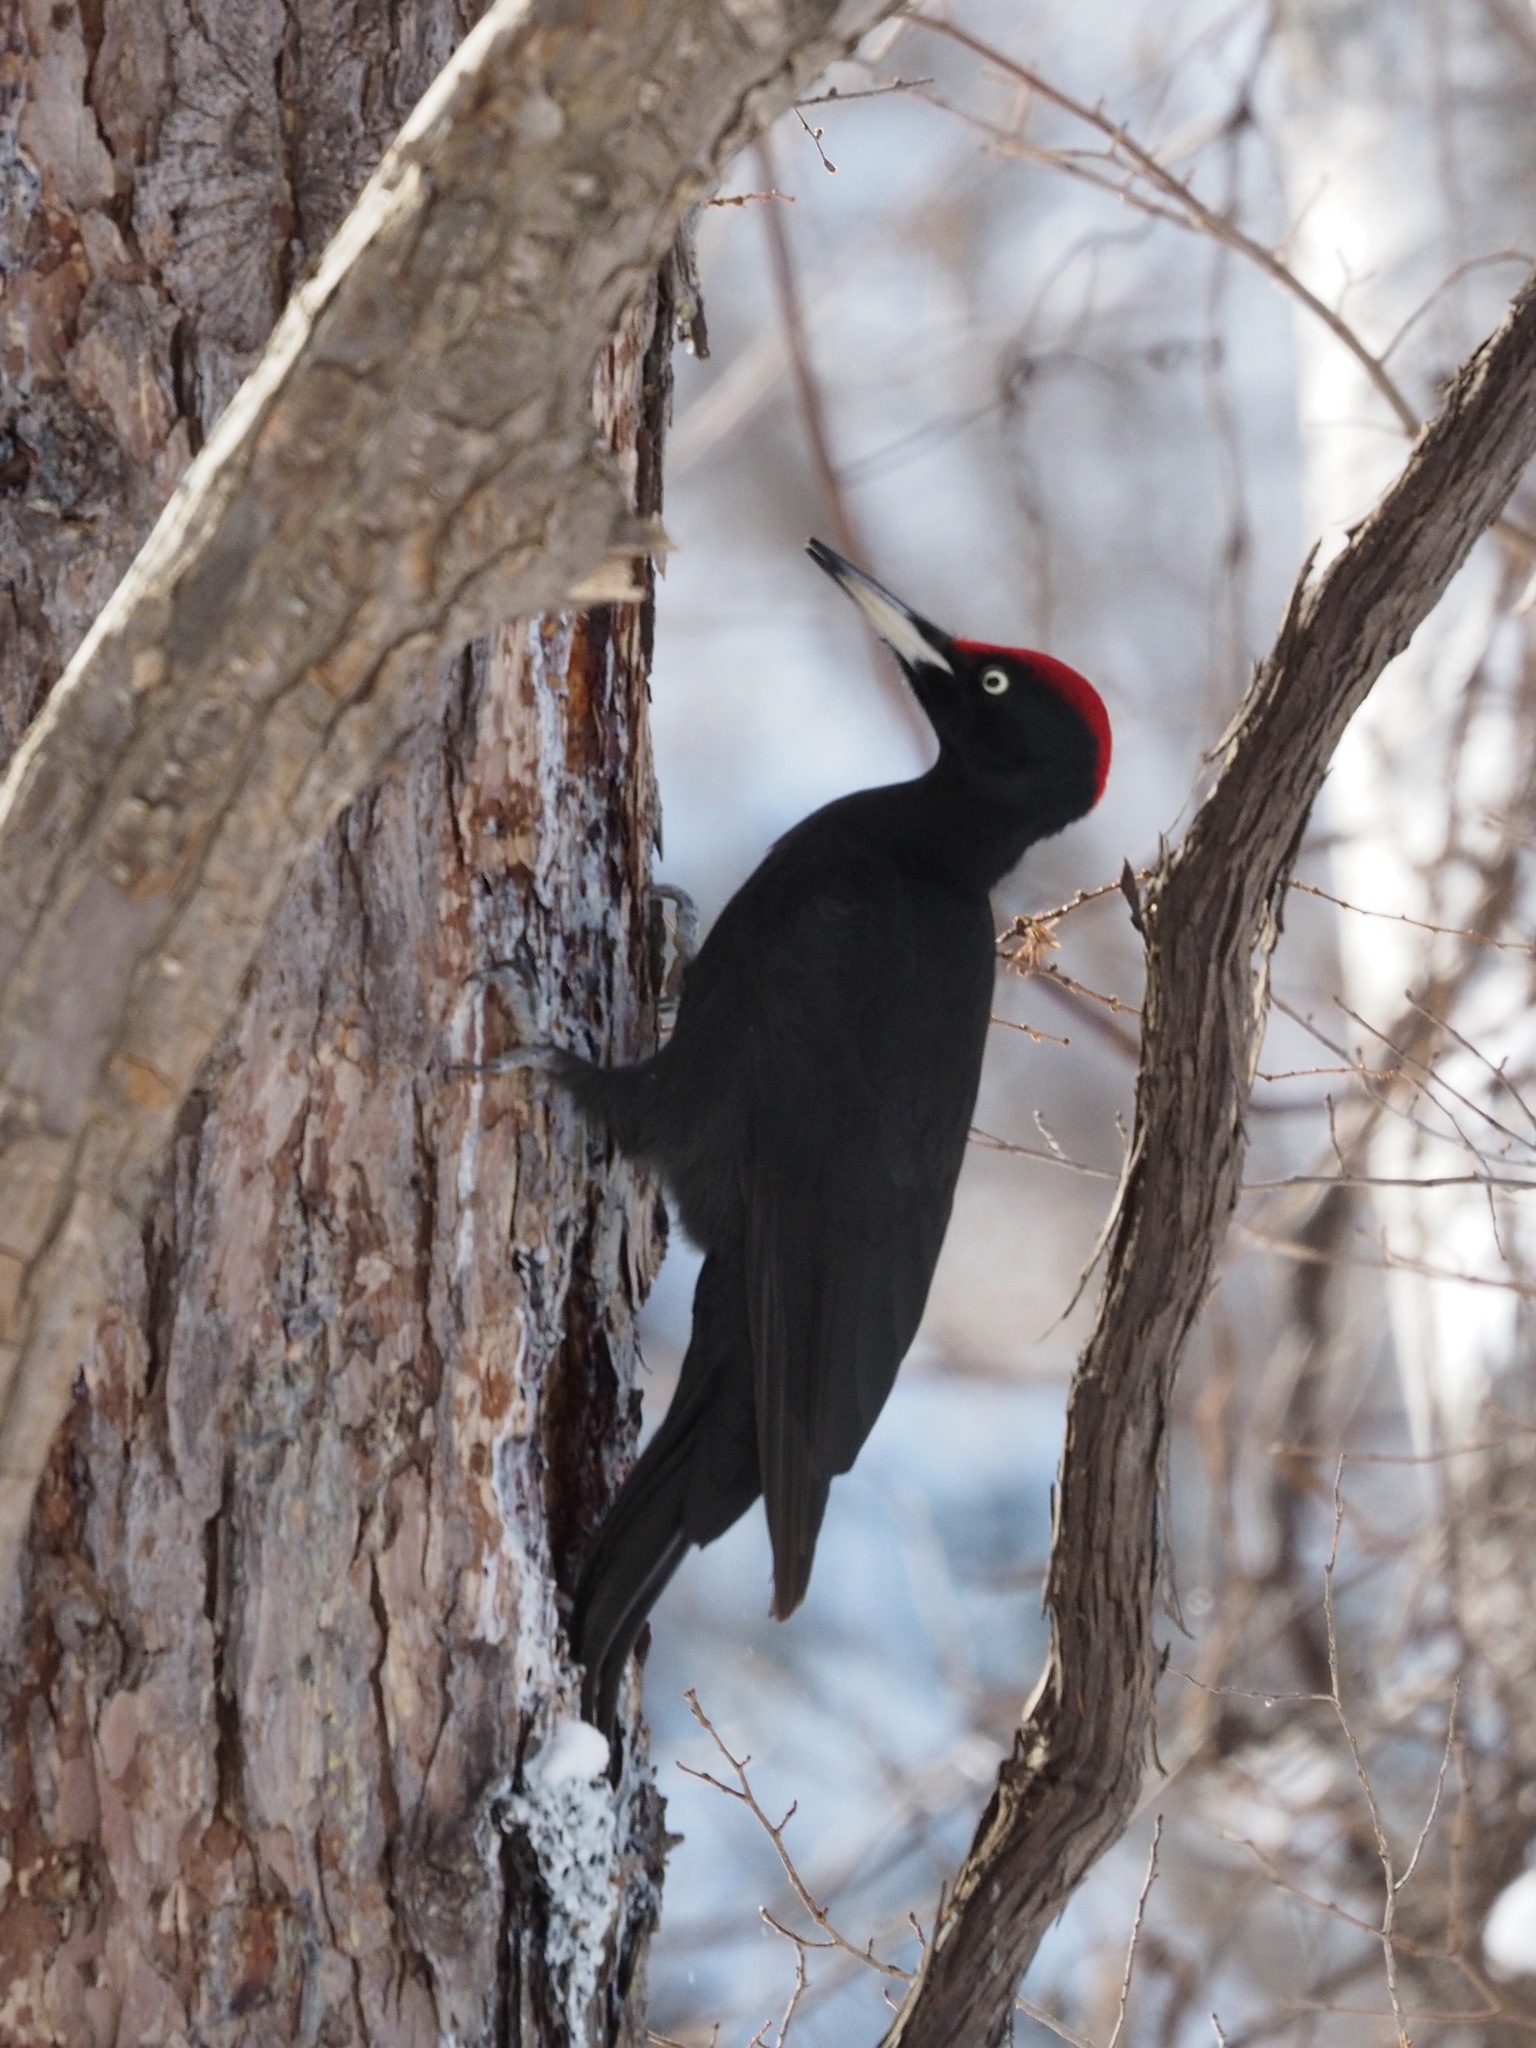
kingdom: Animalia
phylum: Chordata
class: Aves
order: Piciformes
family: Picidae
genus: Dryocopus
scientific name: Dryocopus martius
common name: Black woodpecker
